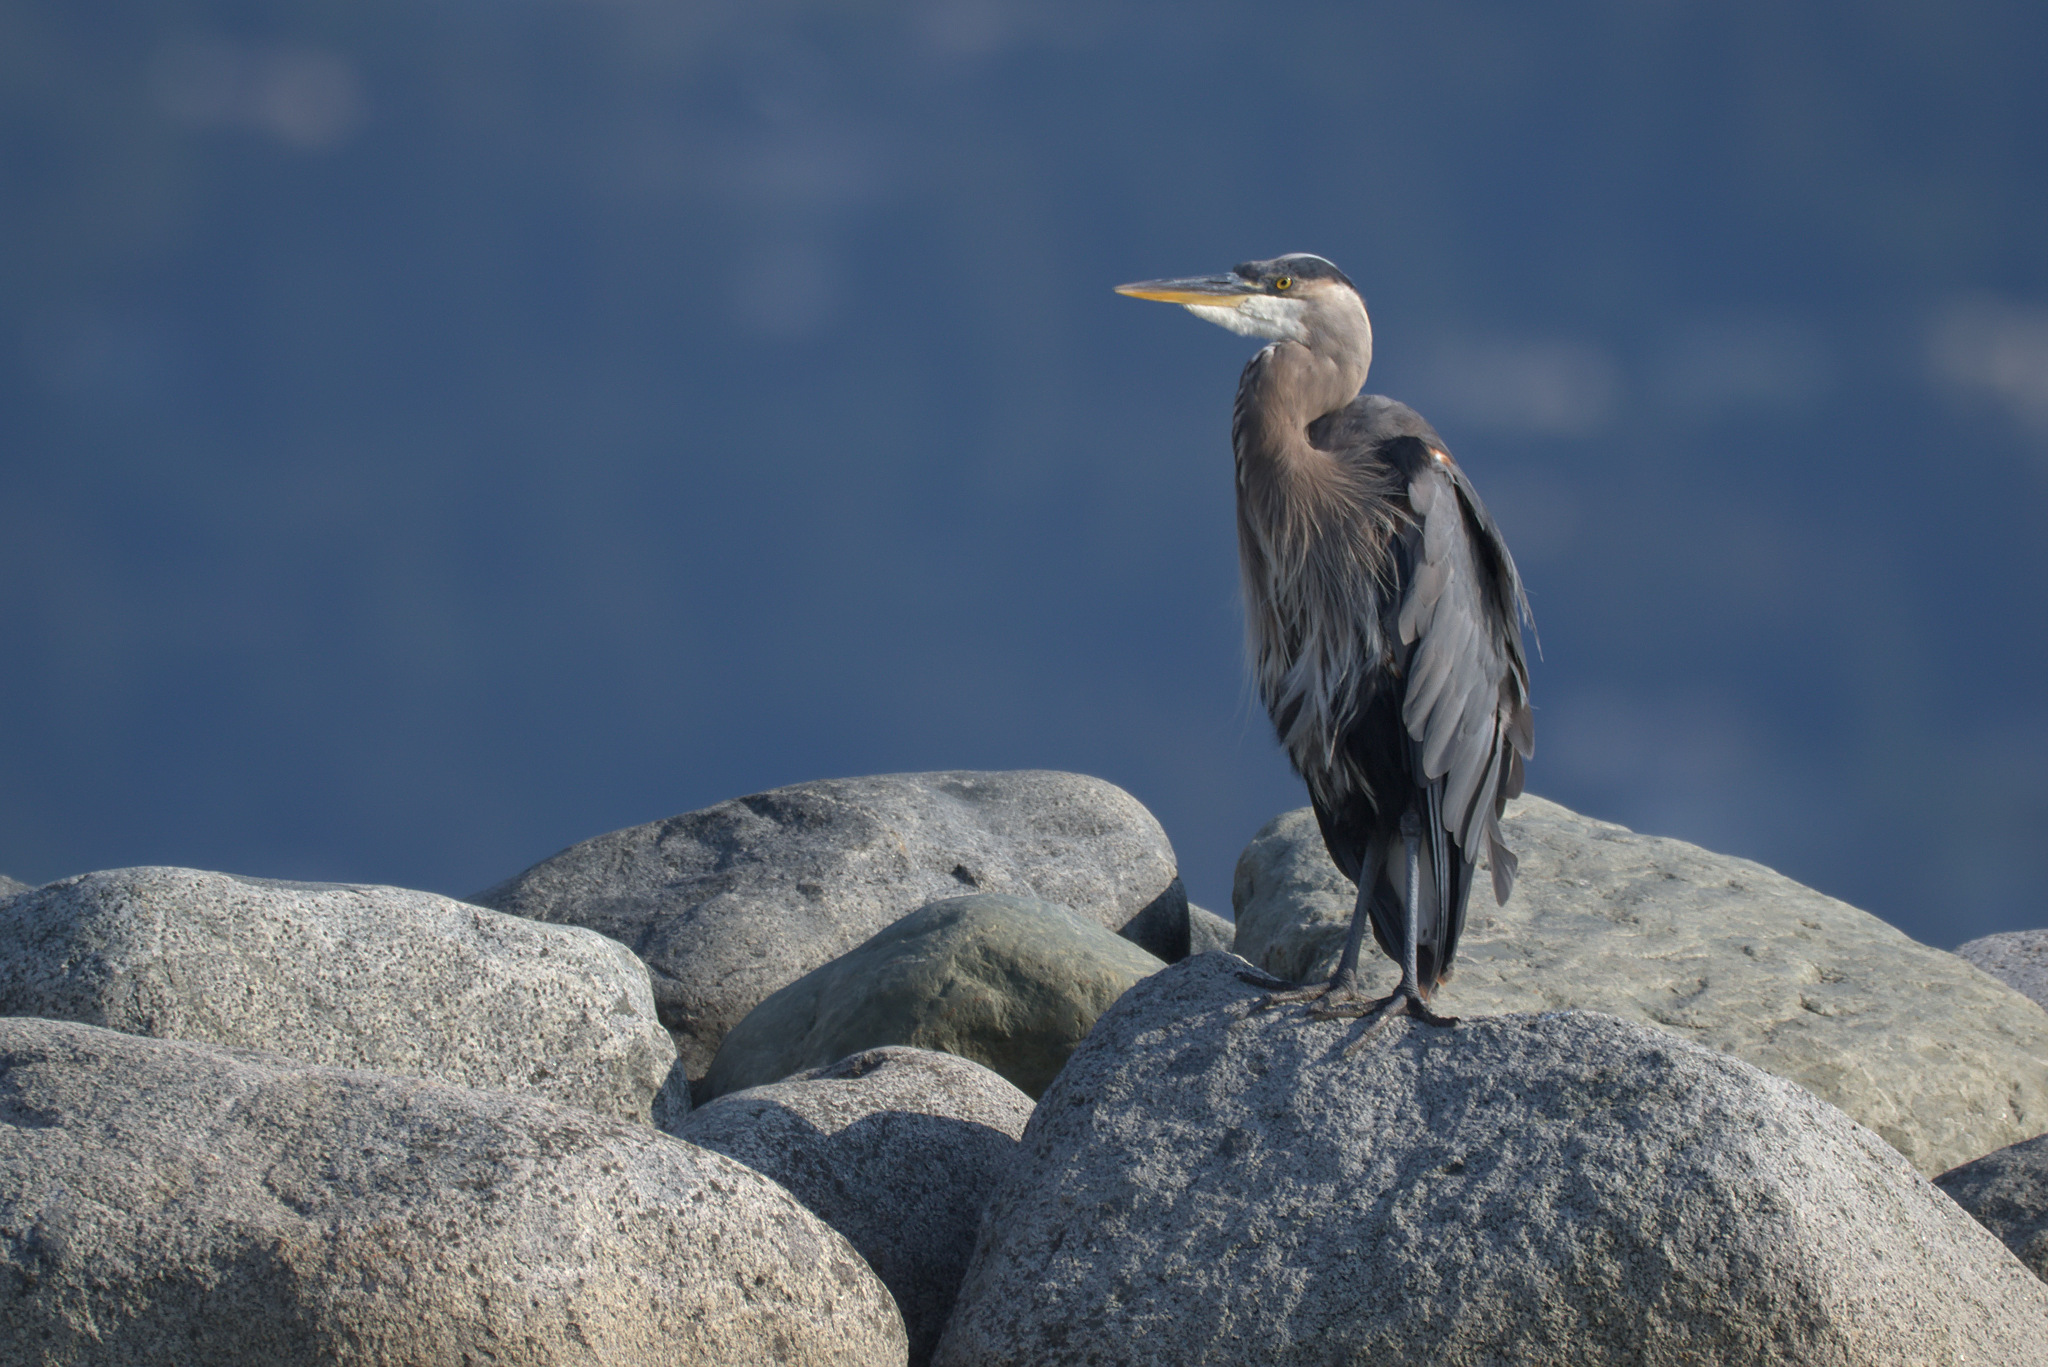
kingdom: Animalia
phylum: Chordata
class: Aves
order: Pelecaniformes
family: Ardeidae
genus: Ardea
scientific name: Ardea herodias
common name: Great blue heron
